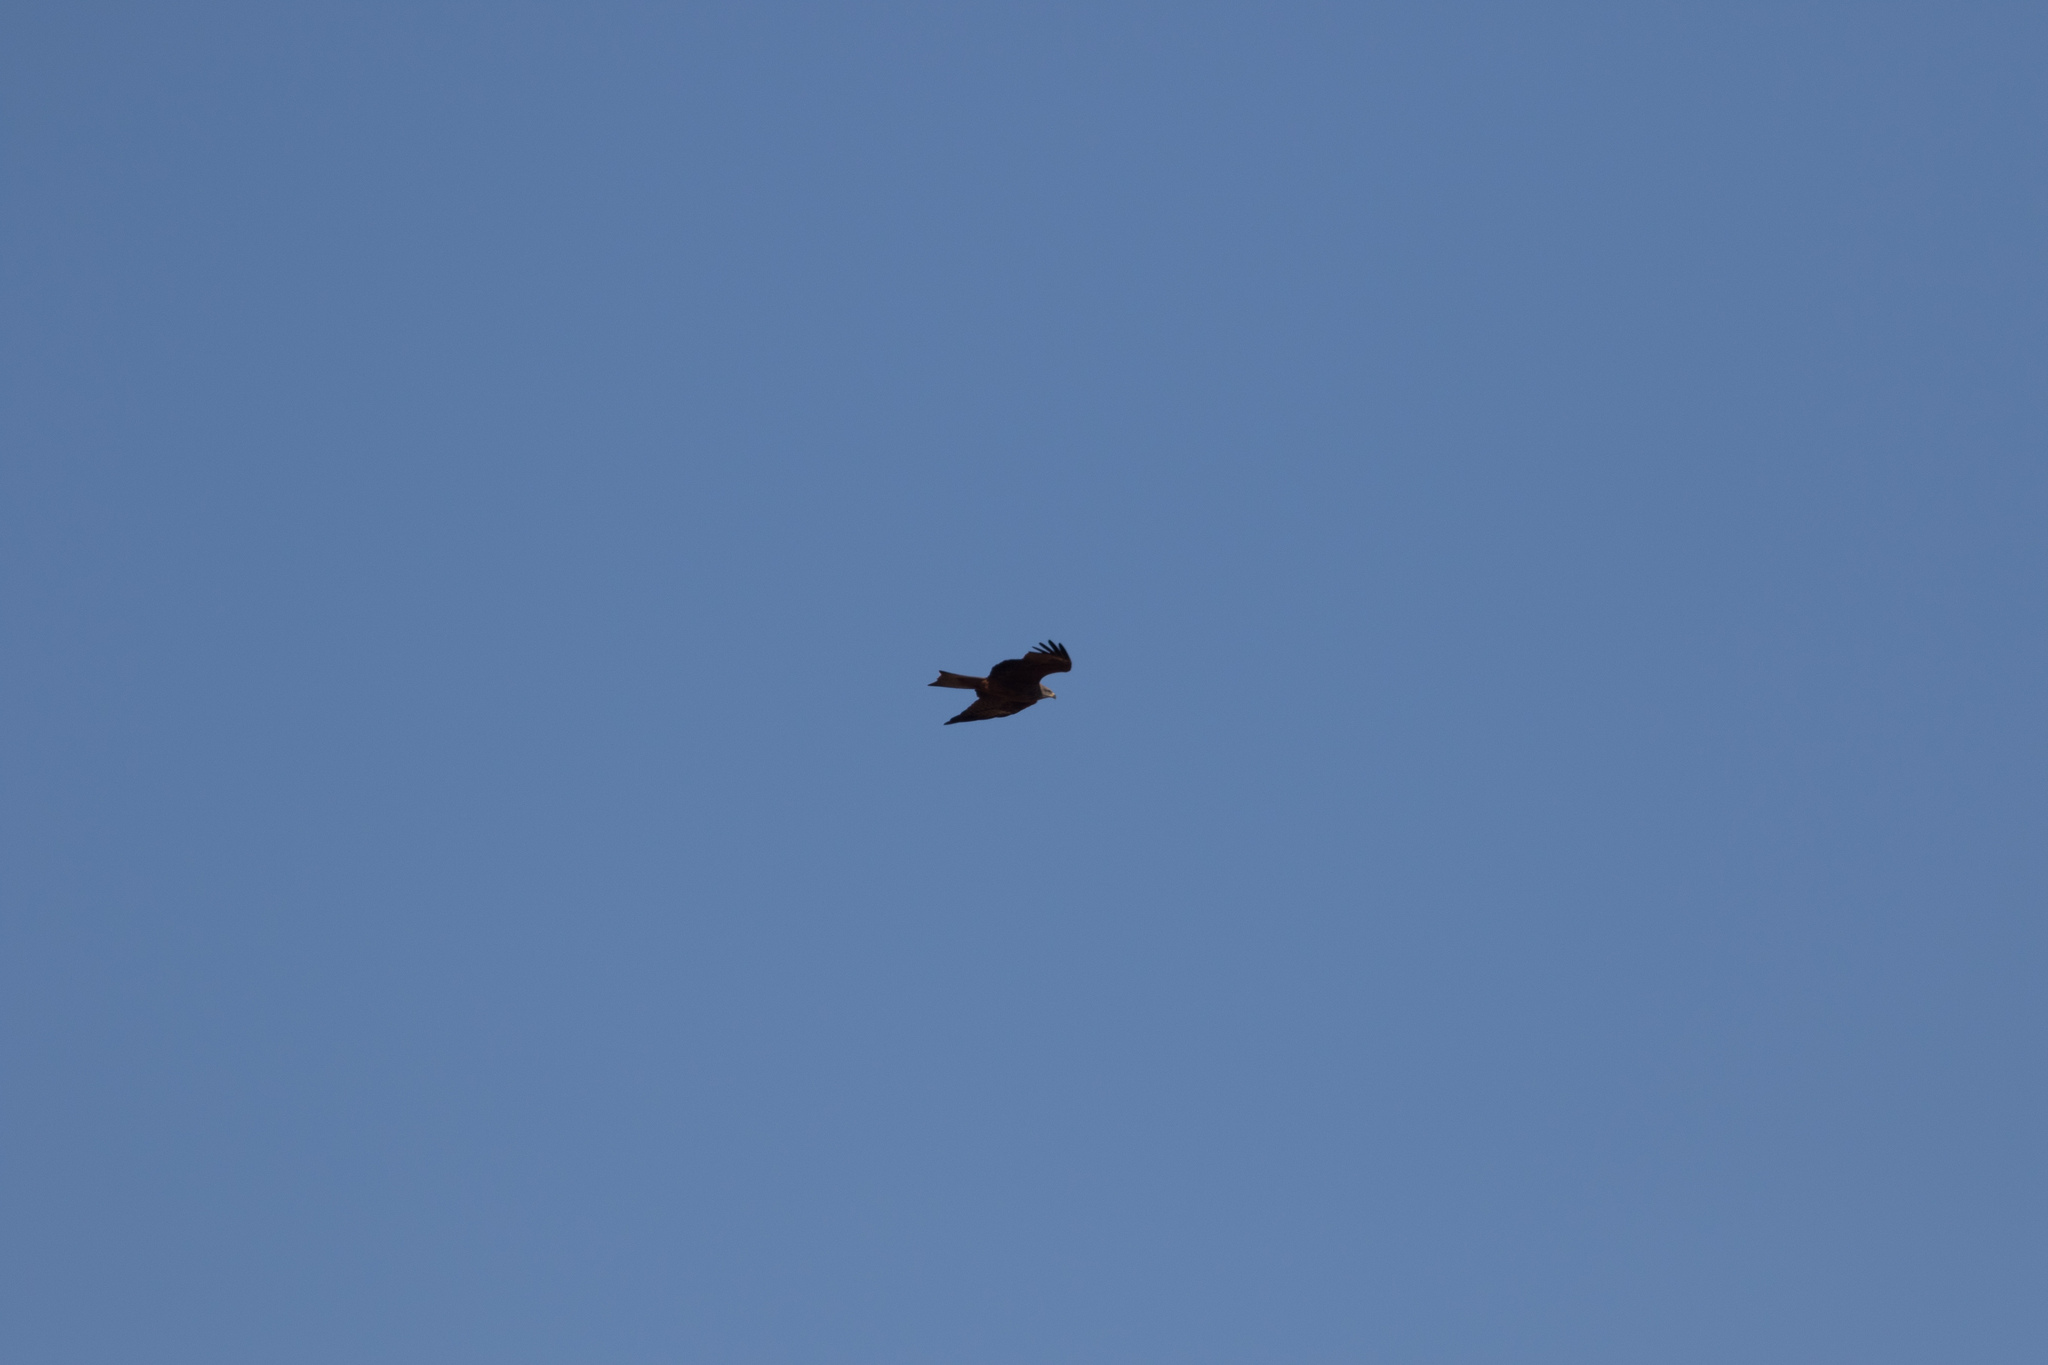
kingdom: Animalia
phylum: Chordata
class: Aves
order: Accipitriformes
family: Accipitridae
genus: Milvus
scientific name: Milvus migrans
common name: Black kite
